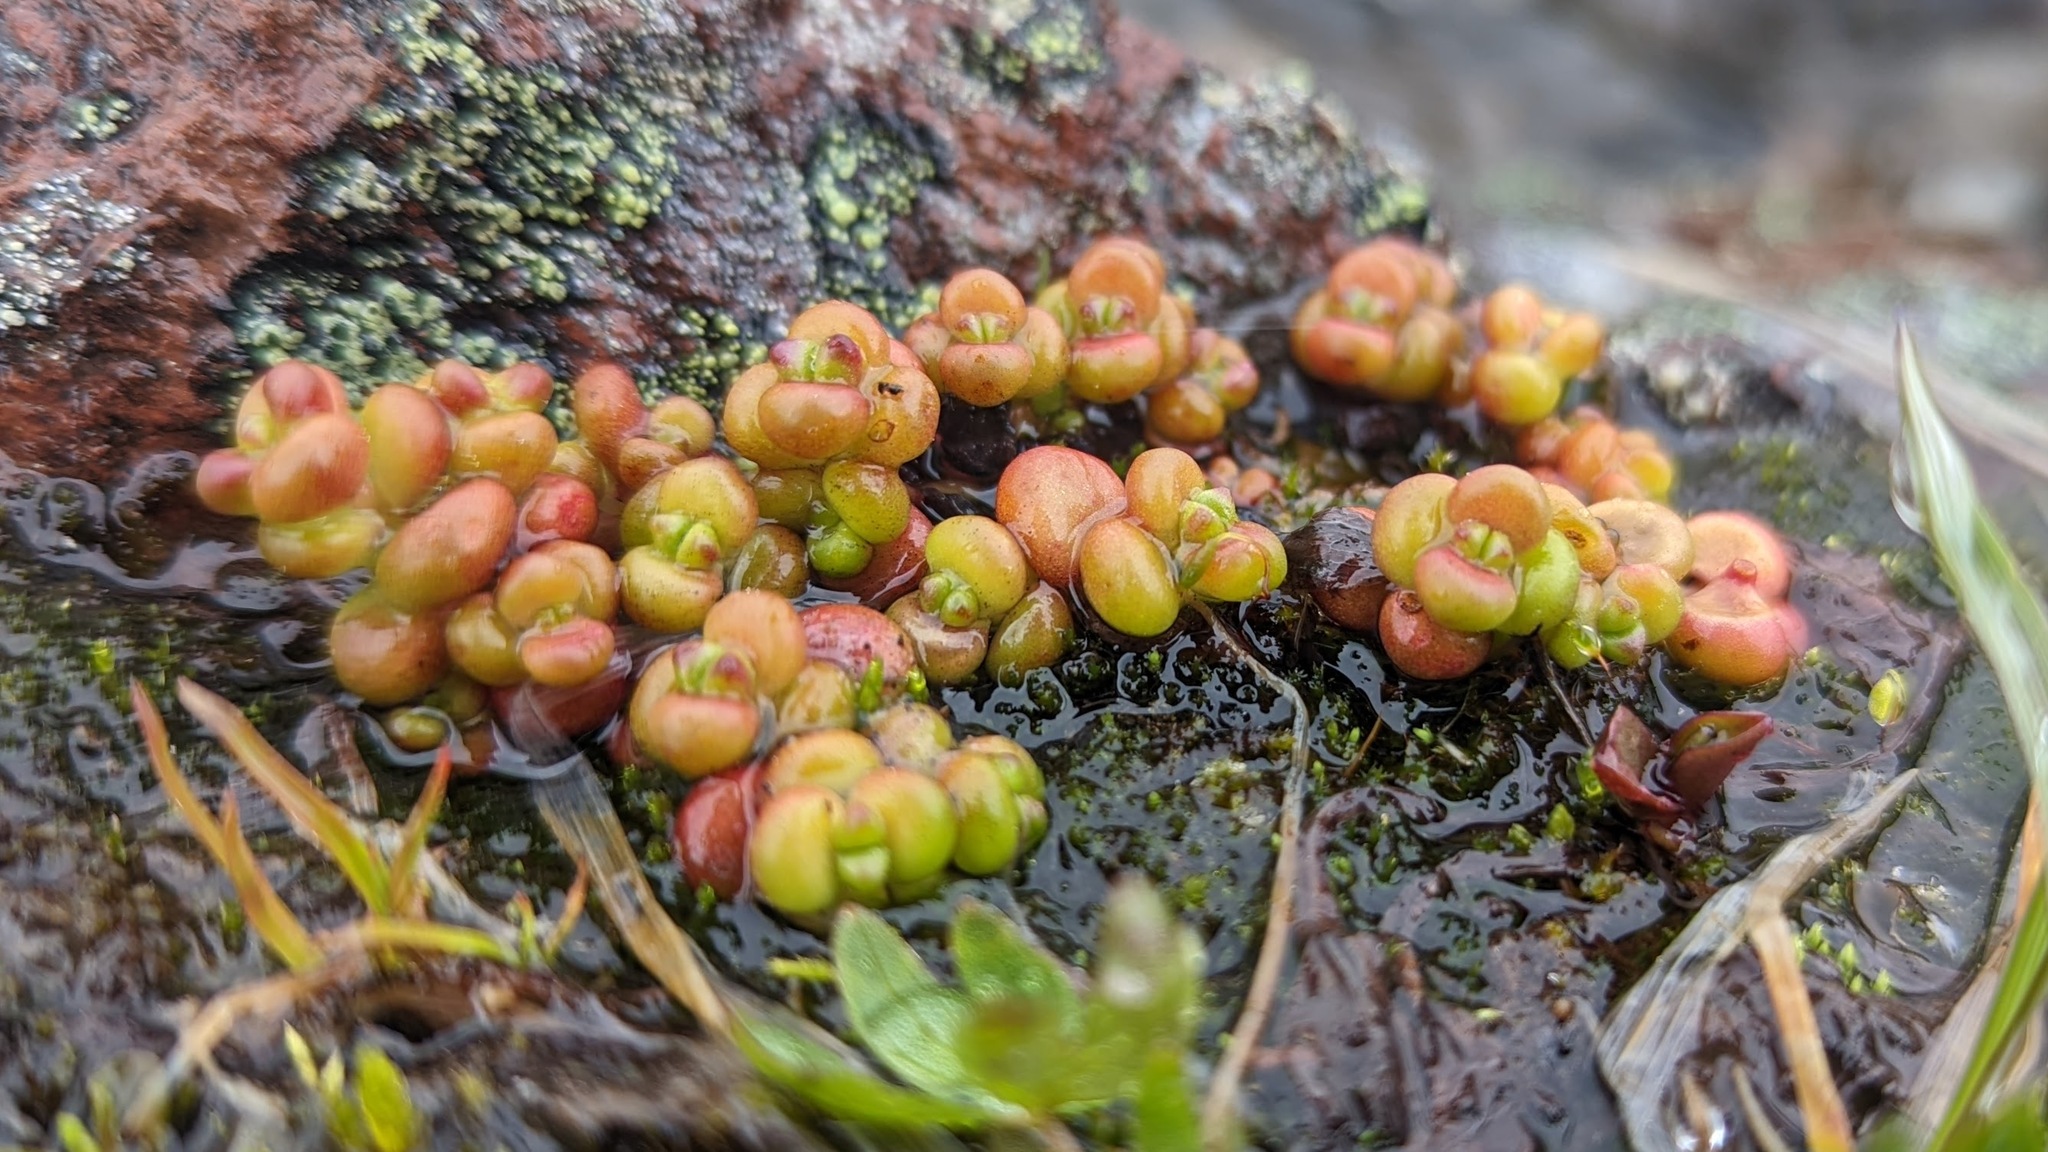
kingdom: Plantae
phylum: Tracheophyta
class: Magnoliopsida
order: Saxifragales
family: Crassulaceae
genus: Sedum
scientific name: Sedum divergens
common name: Cascade stonecrop
